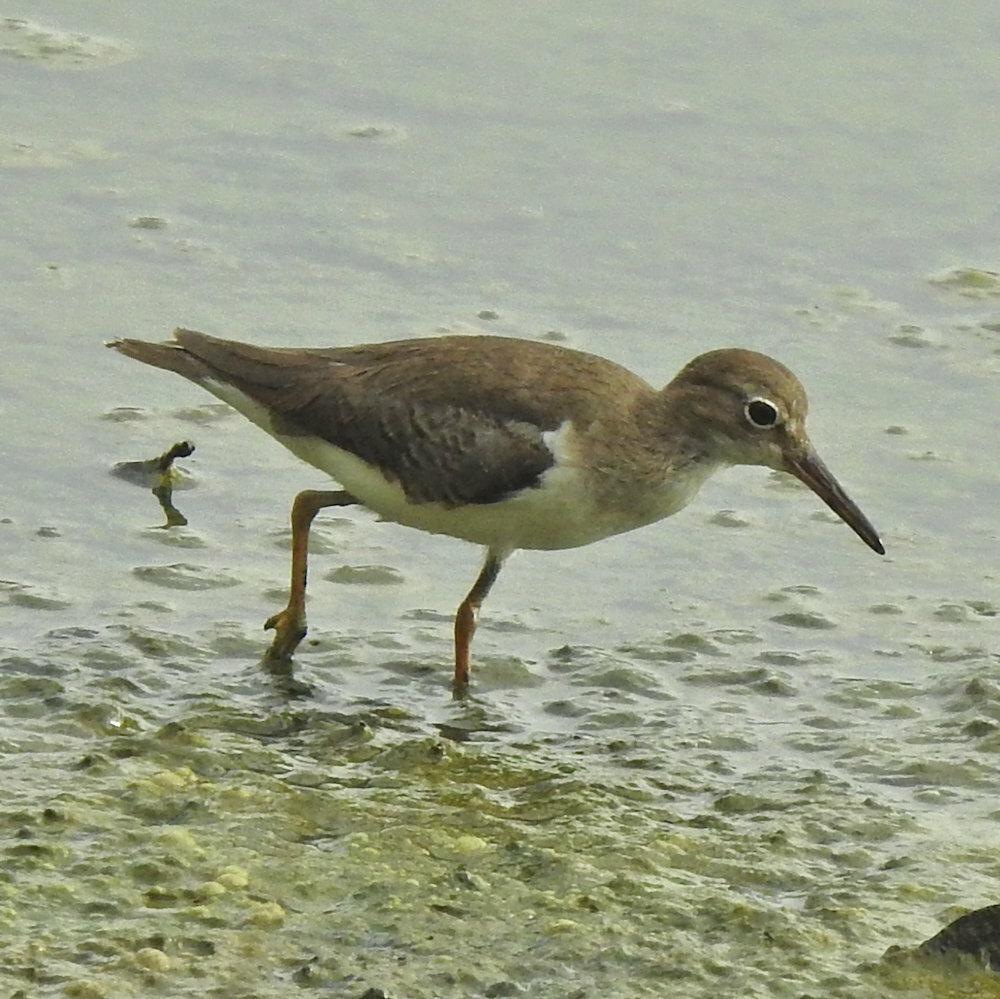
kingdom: Animalia
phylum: Chordata
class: Aves
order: Charadriiformes
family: Scolopacidae
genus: Actitis
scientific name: Actitis macularius
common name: Spotted sandpiper
